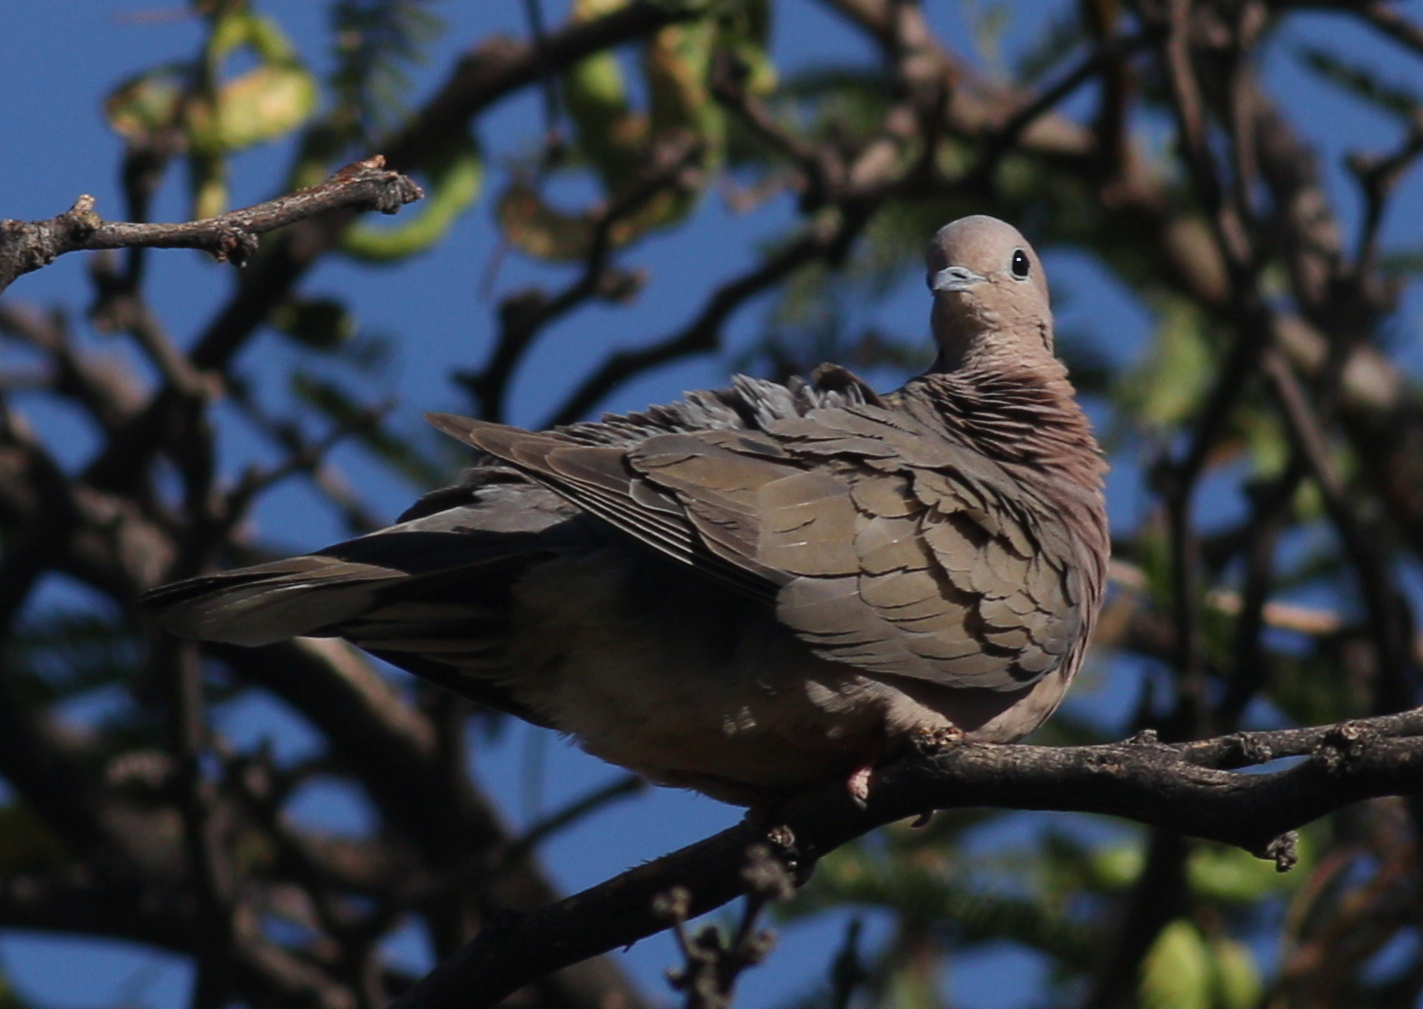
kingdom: Animalia
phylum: Chordata
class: Aves
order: Columbiformes
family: Columbidae
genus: Zenaida
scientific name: Zenaida auriculata
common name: Eared dove
